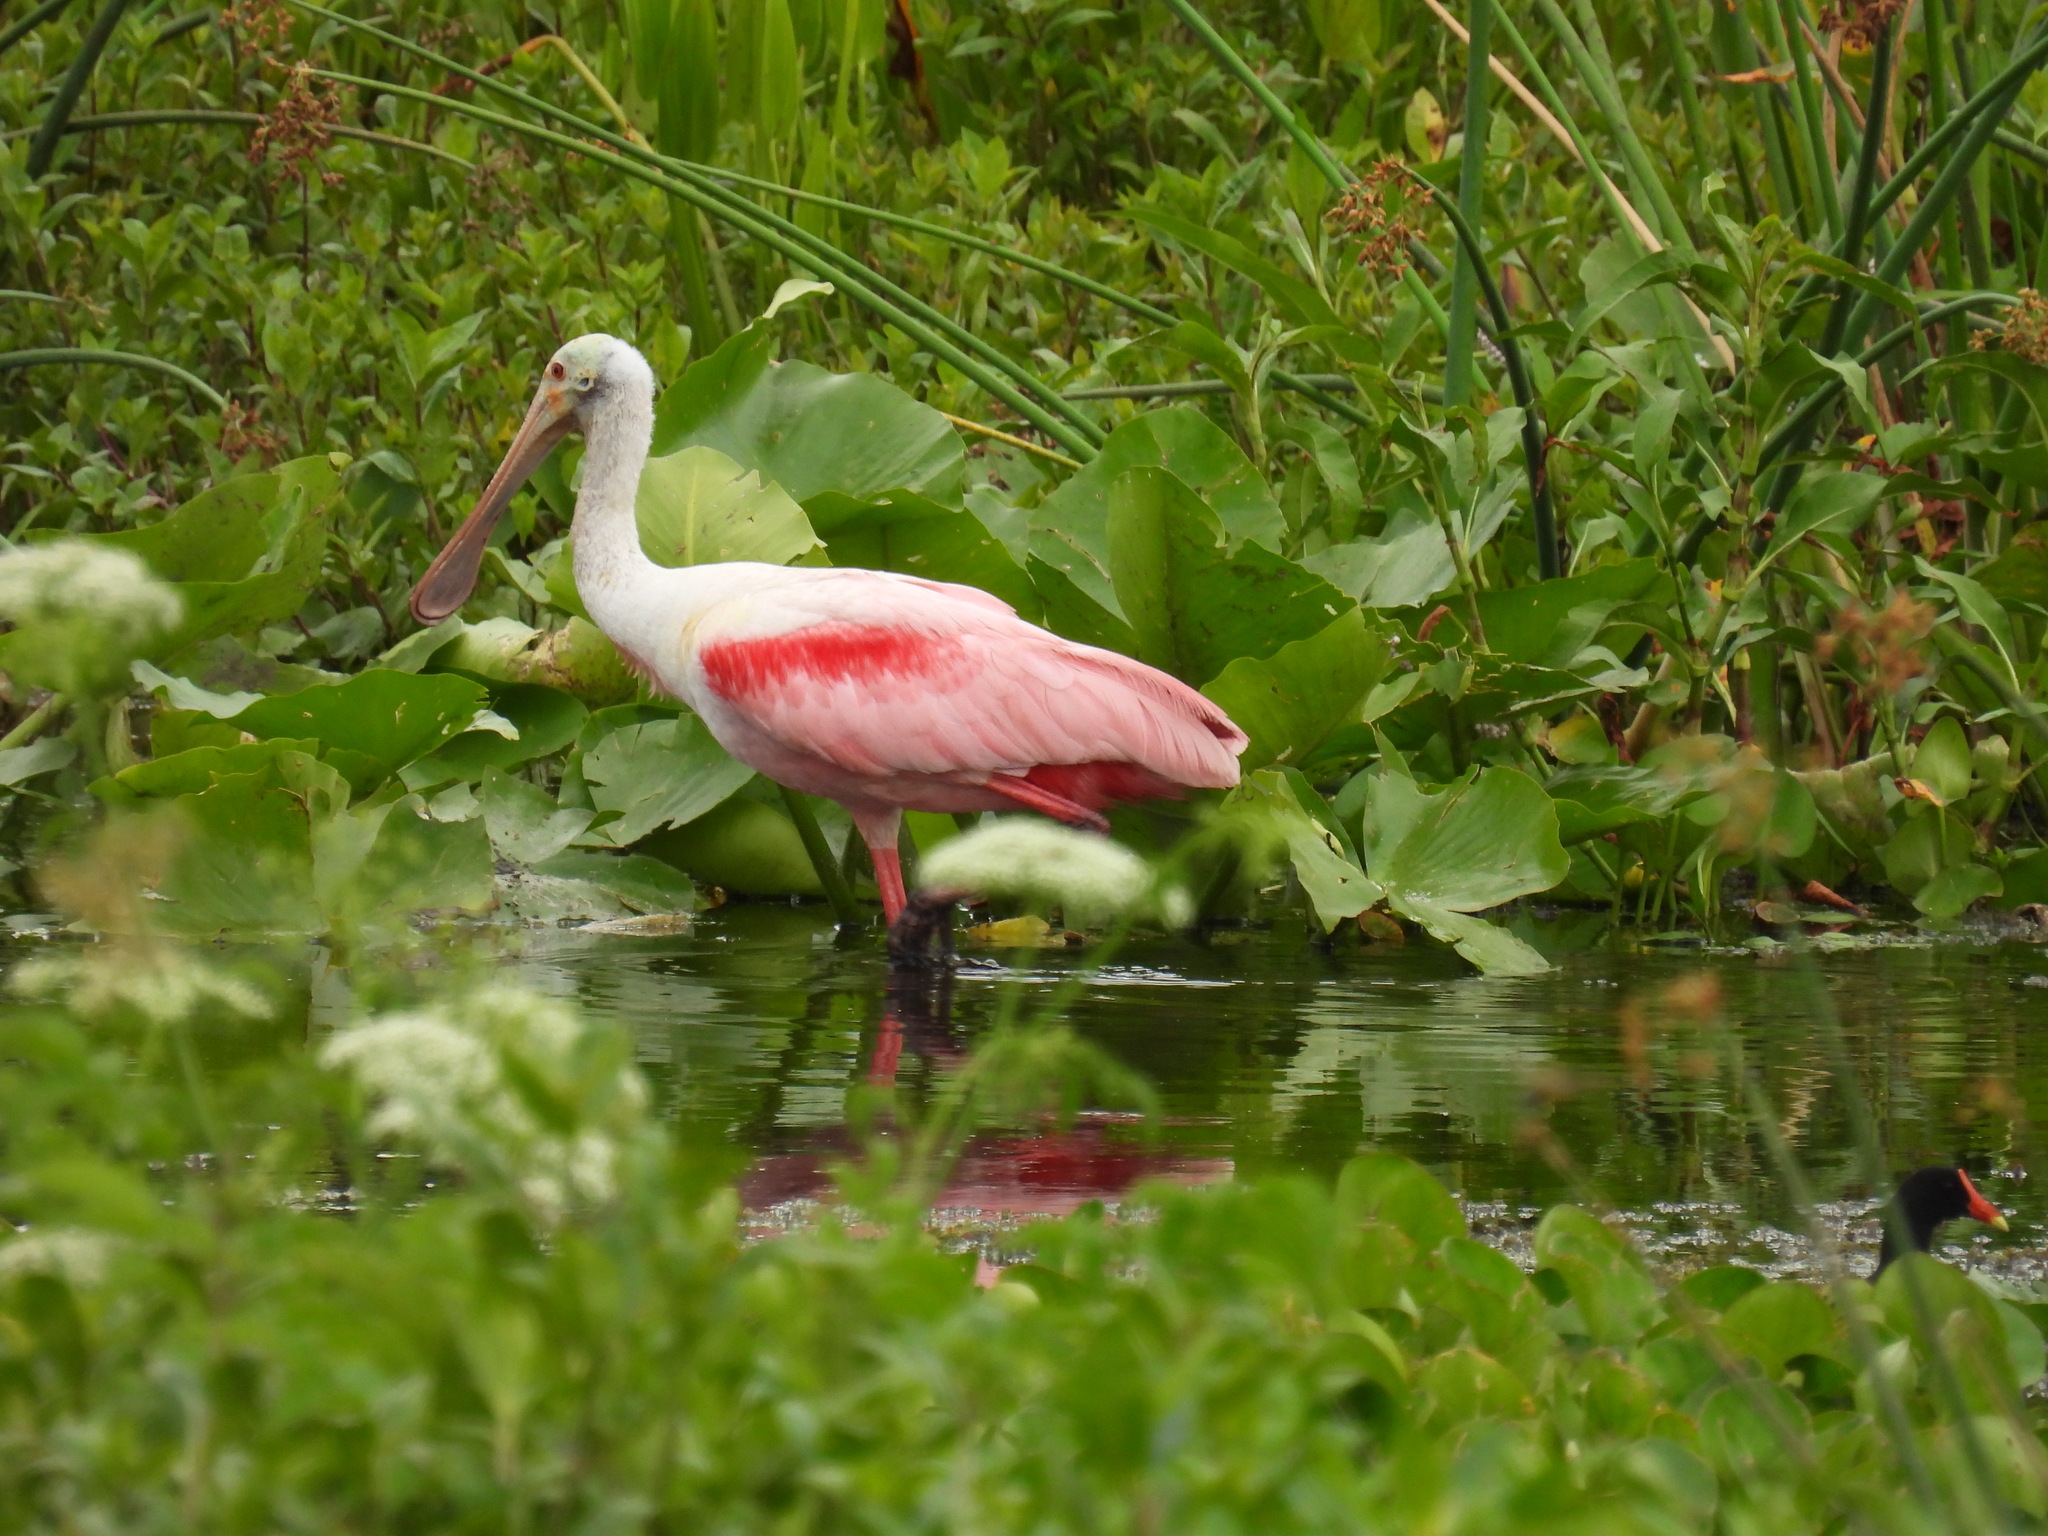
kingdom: Animalia
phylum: Chordata
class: Aves
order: Pelecaniformes
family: Threskiornithidae
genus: Platalea
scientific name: Platalea ajaja
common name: Roseate spoonbill
